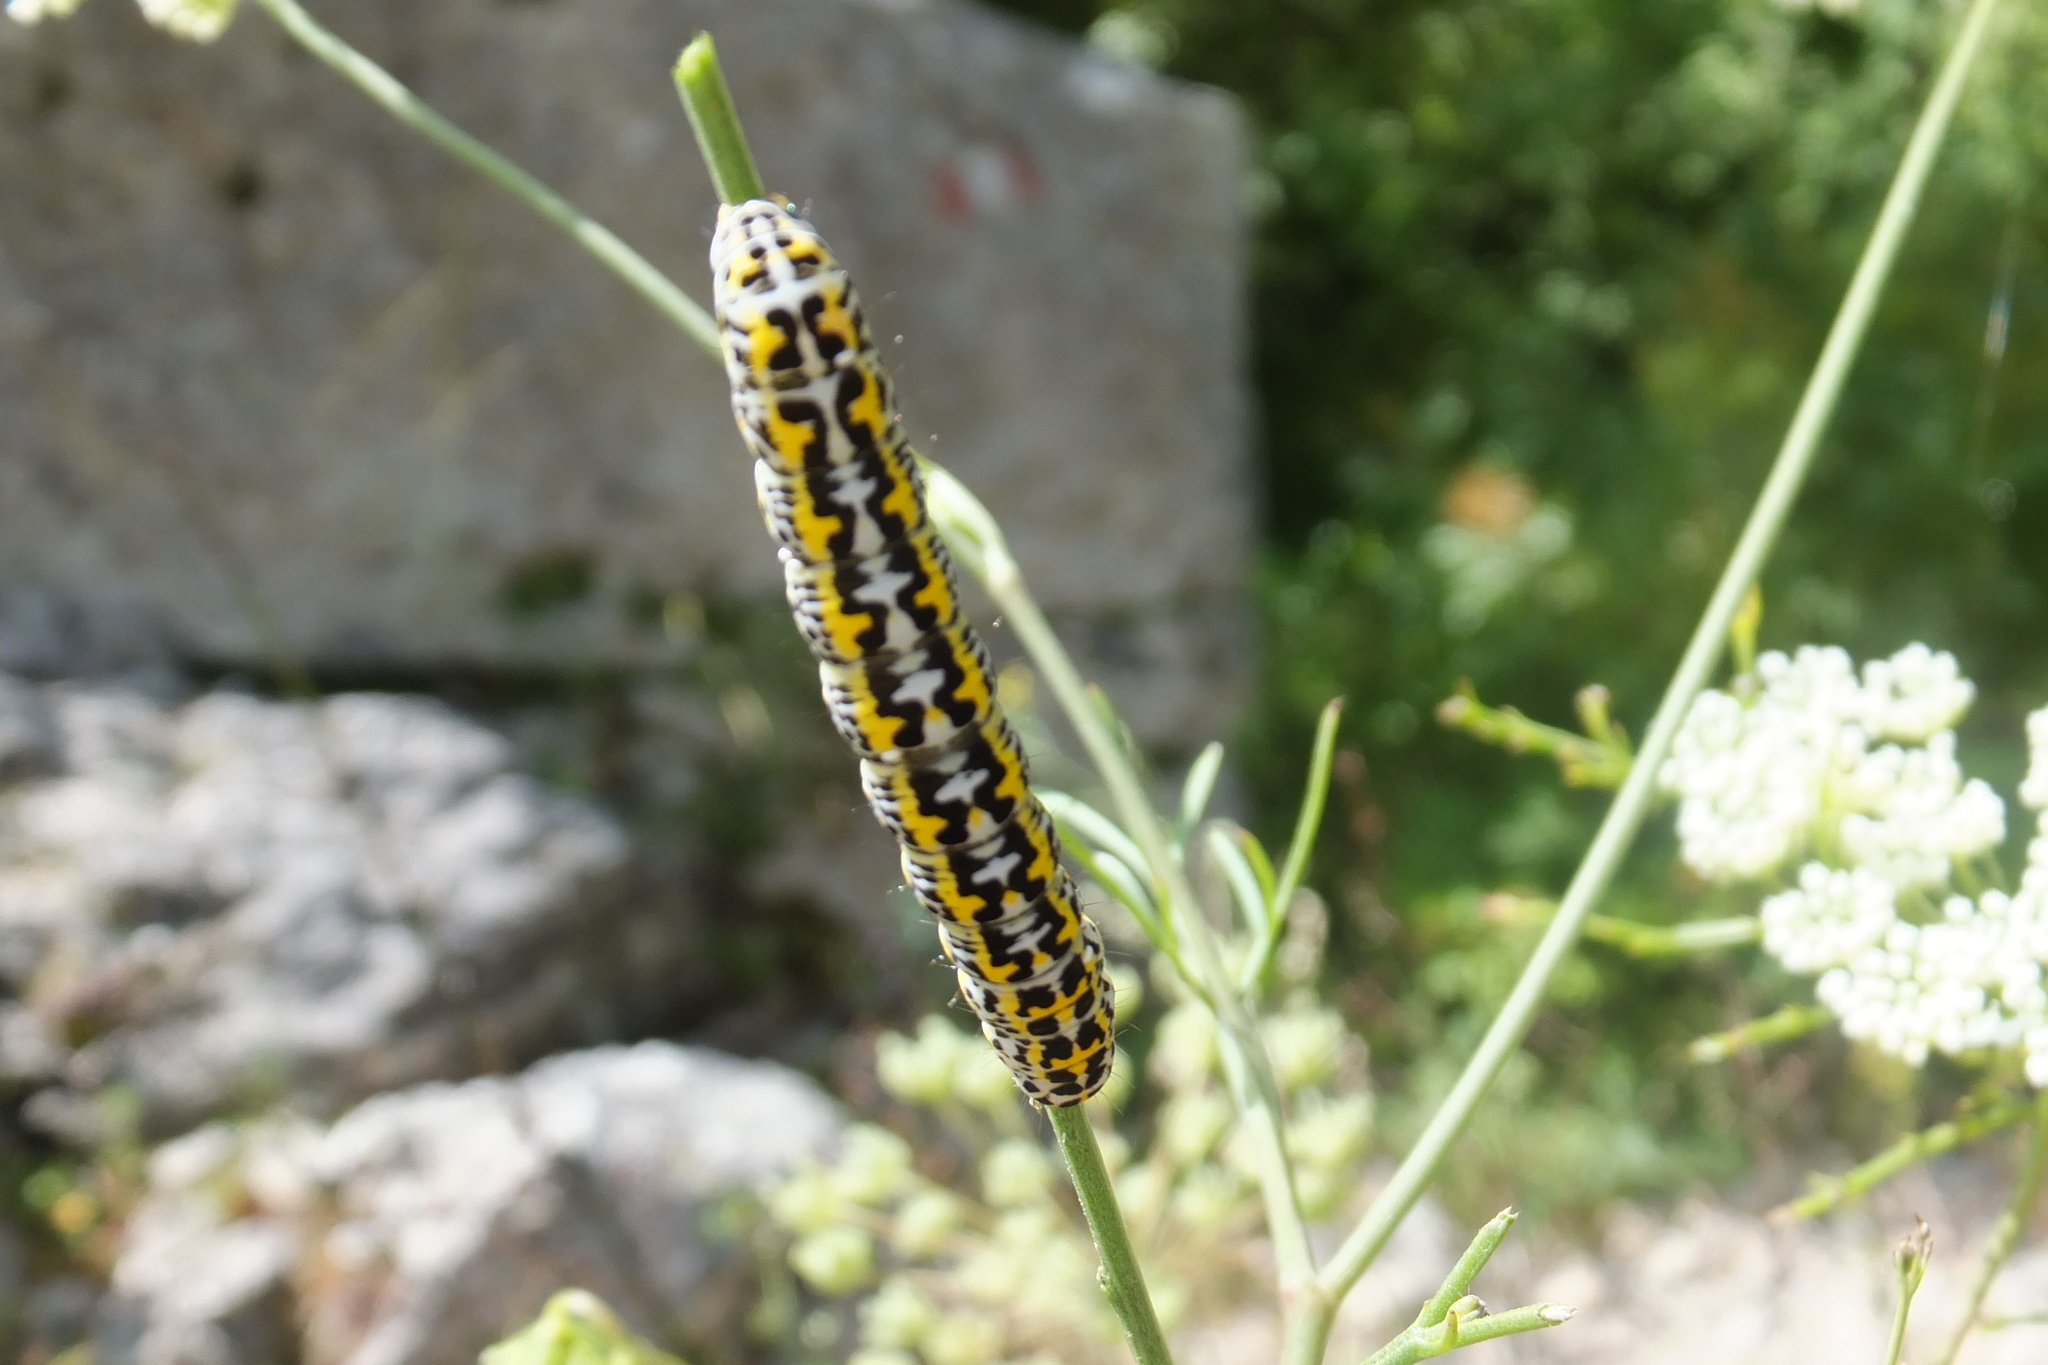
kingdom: Animalia
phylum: Arthropoda
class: Insecta
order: Lepidoptera
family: Noctuidae
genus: Cucullia
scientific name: Cucullia caninae
